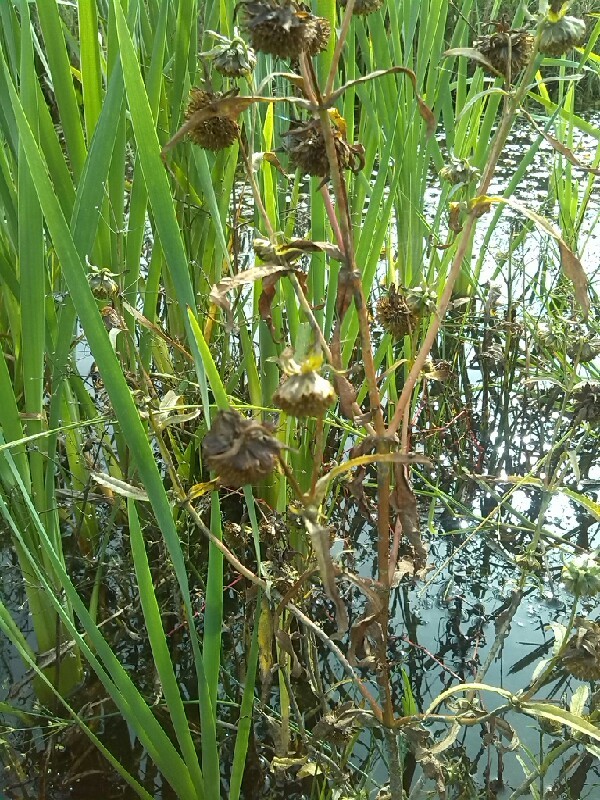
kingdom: Plantae
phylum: Tracheophyta
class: Magnoliopsida
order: Asterales
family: Asteraceae
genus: Bidens
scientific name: Bidens cernua
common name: Nodding bur-marigold
